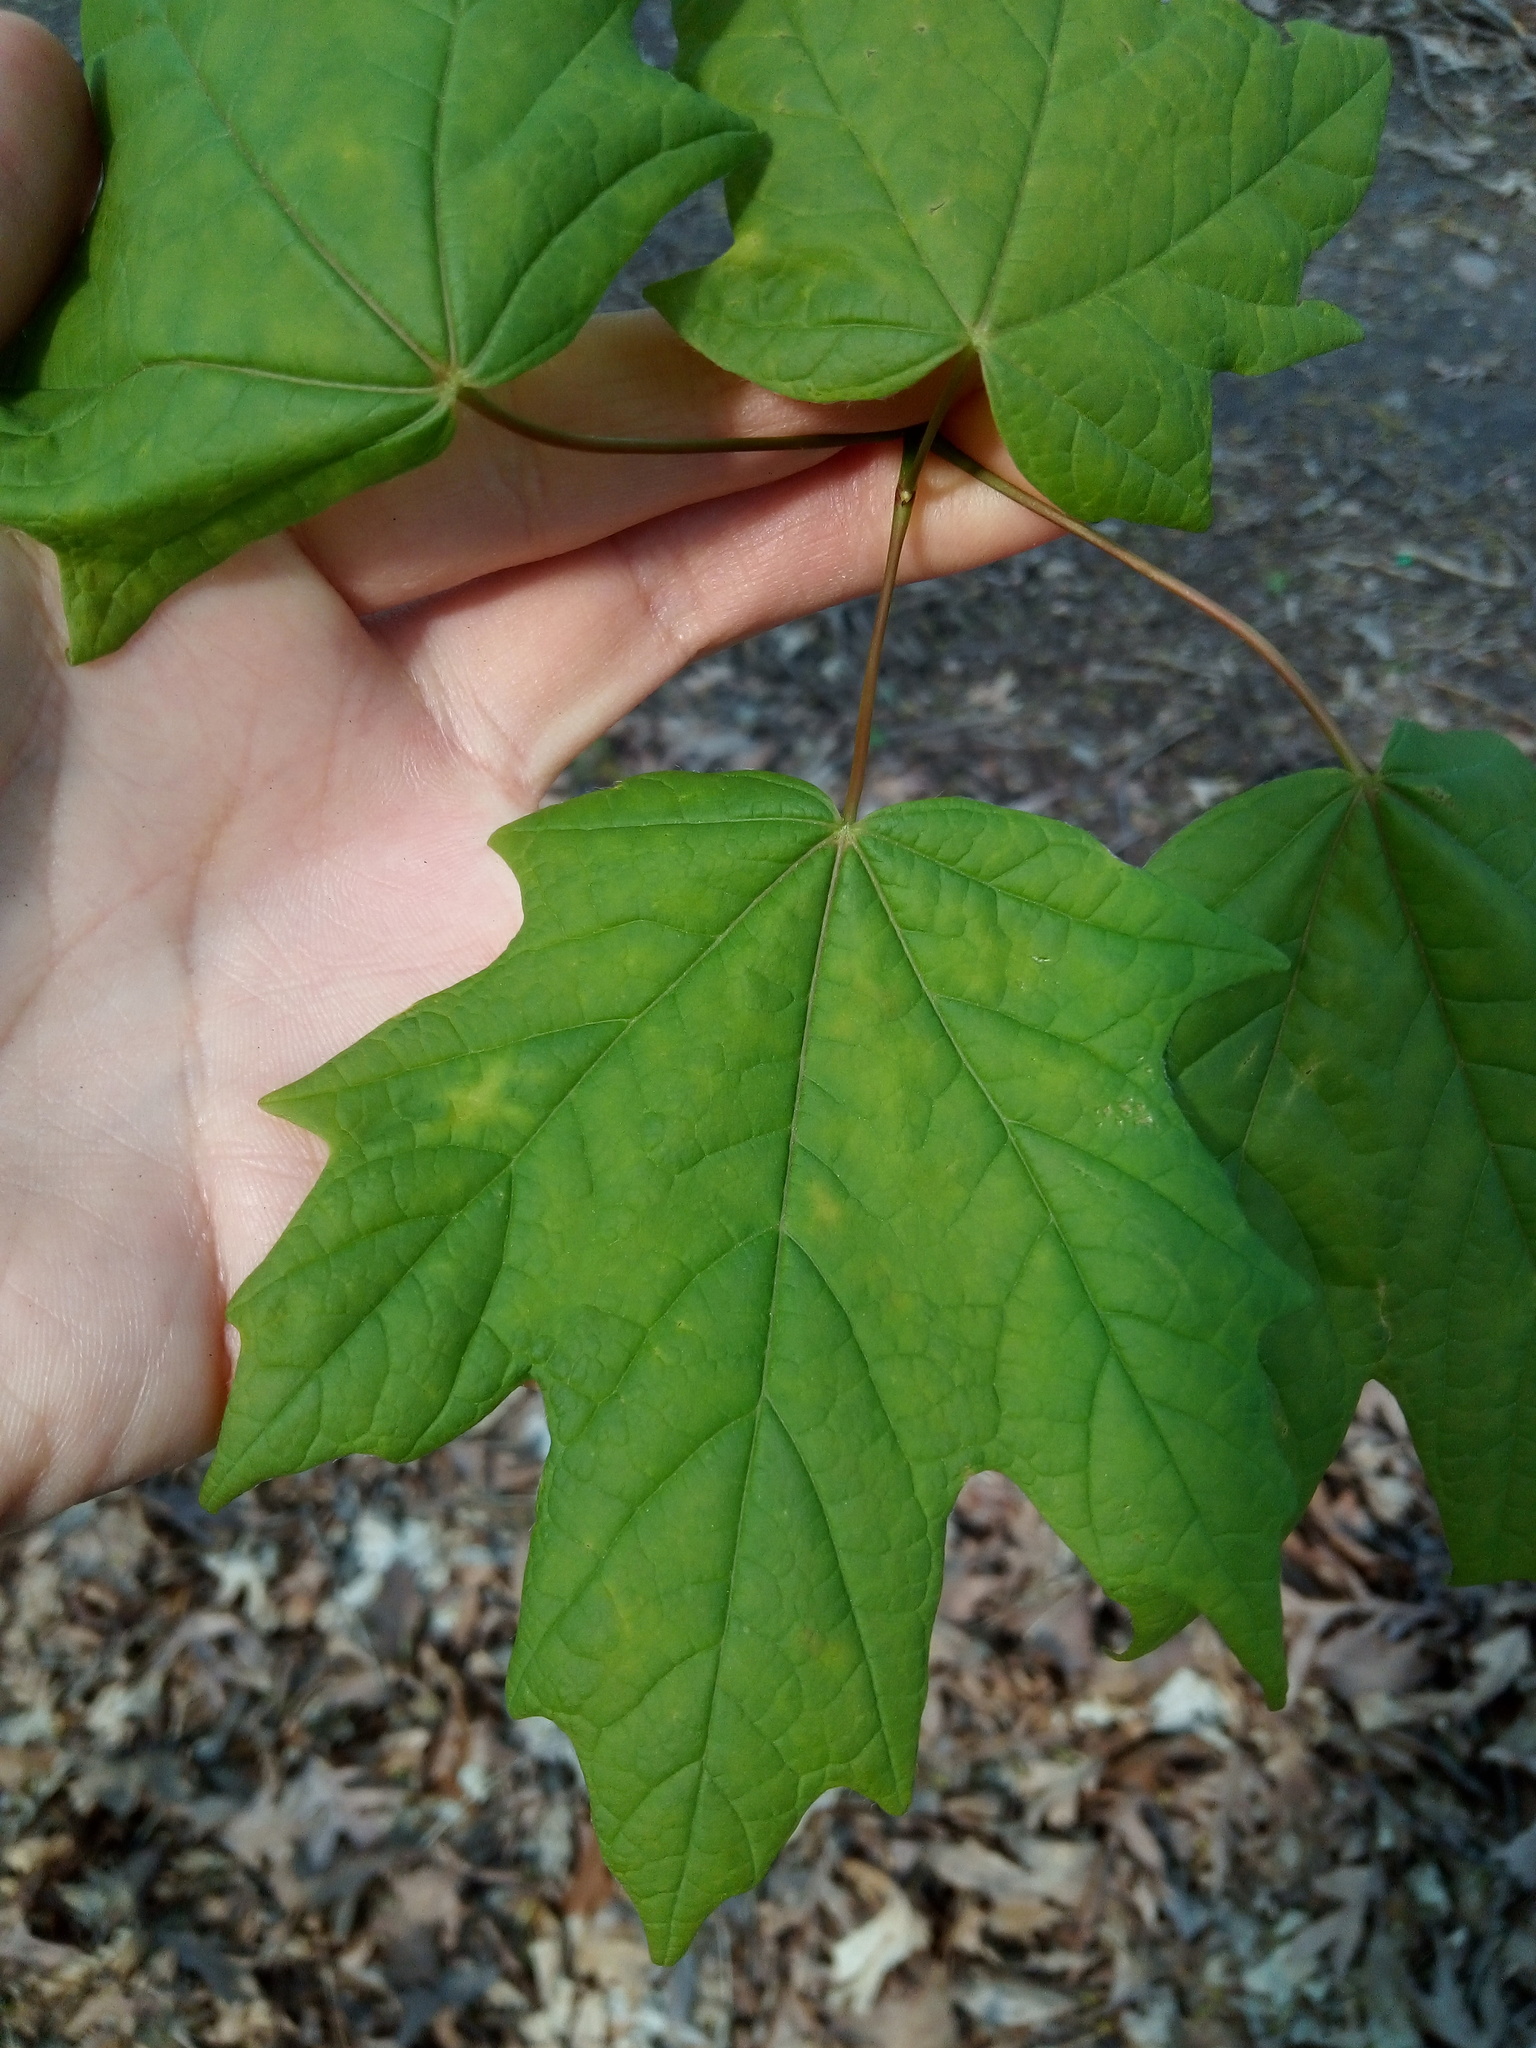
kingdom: Plantae
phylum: Tracheophyta
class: Magnoliopsida
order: Sapindales
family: Sapindaceae
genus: Acer
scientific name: Acer saccharum
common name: Sugar maple
